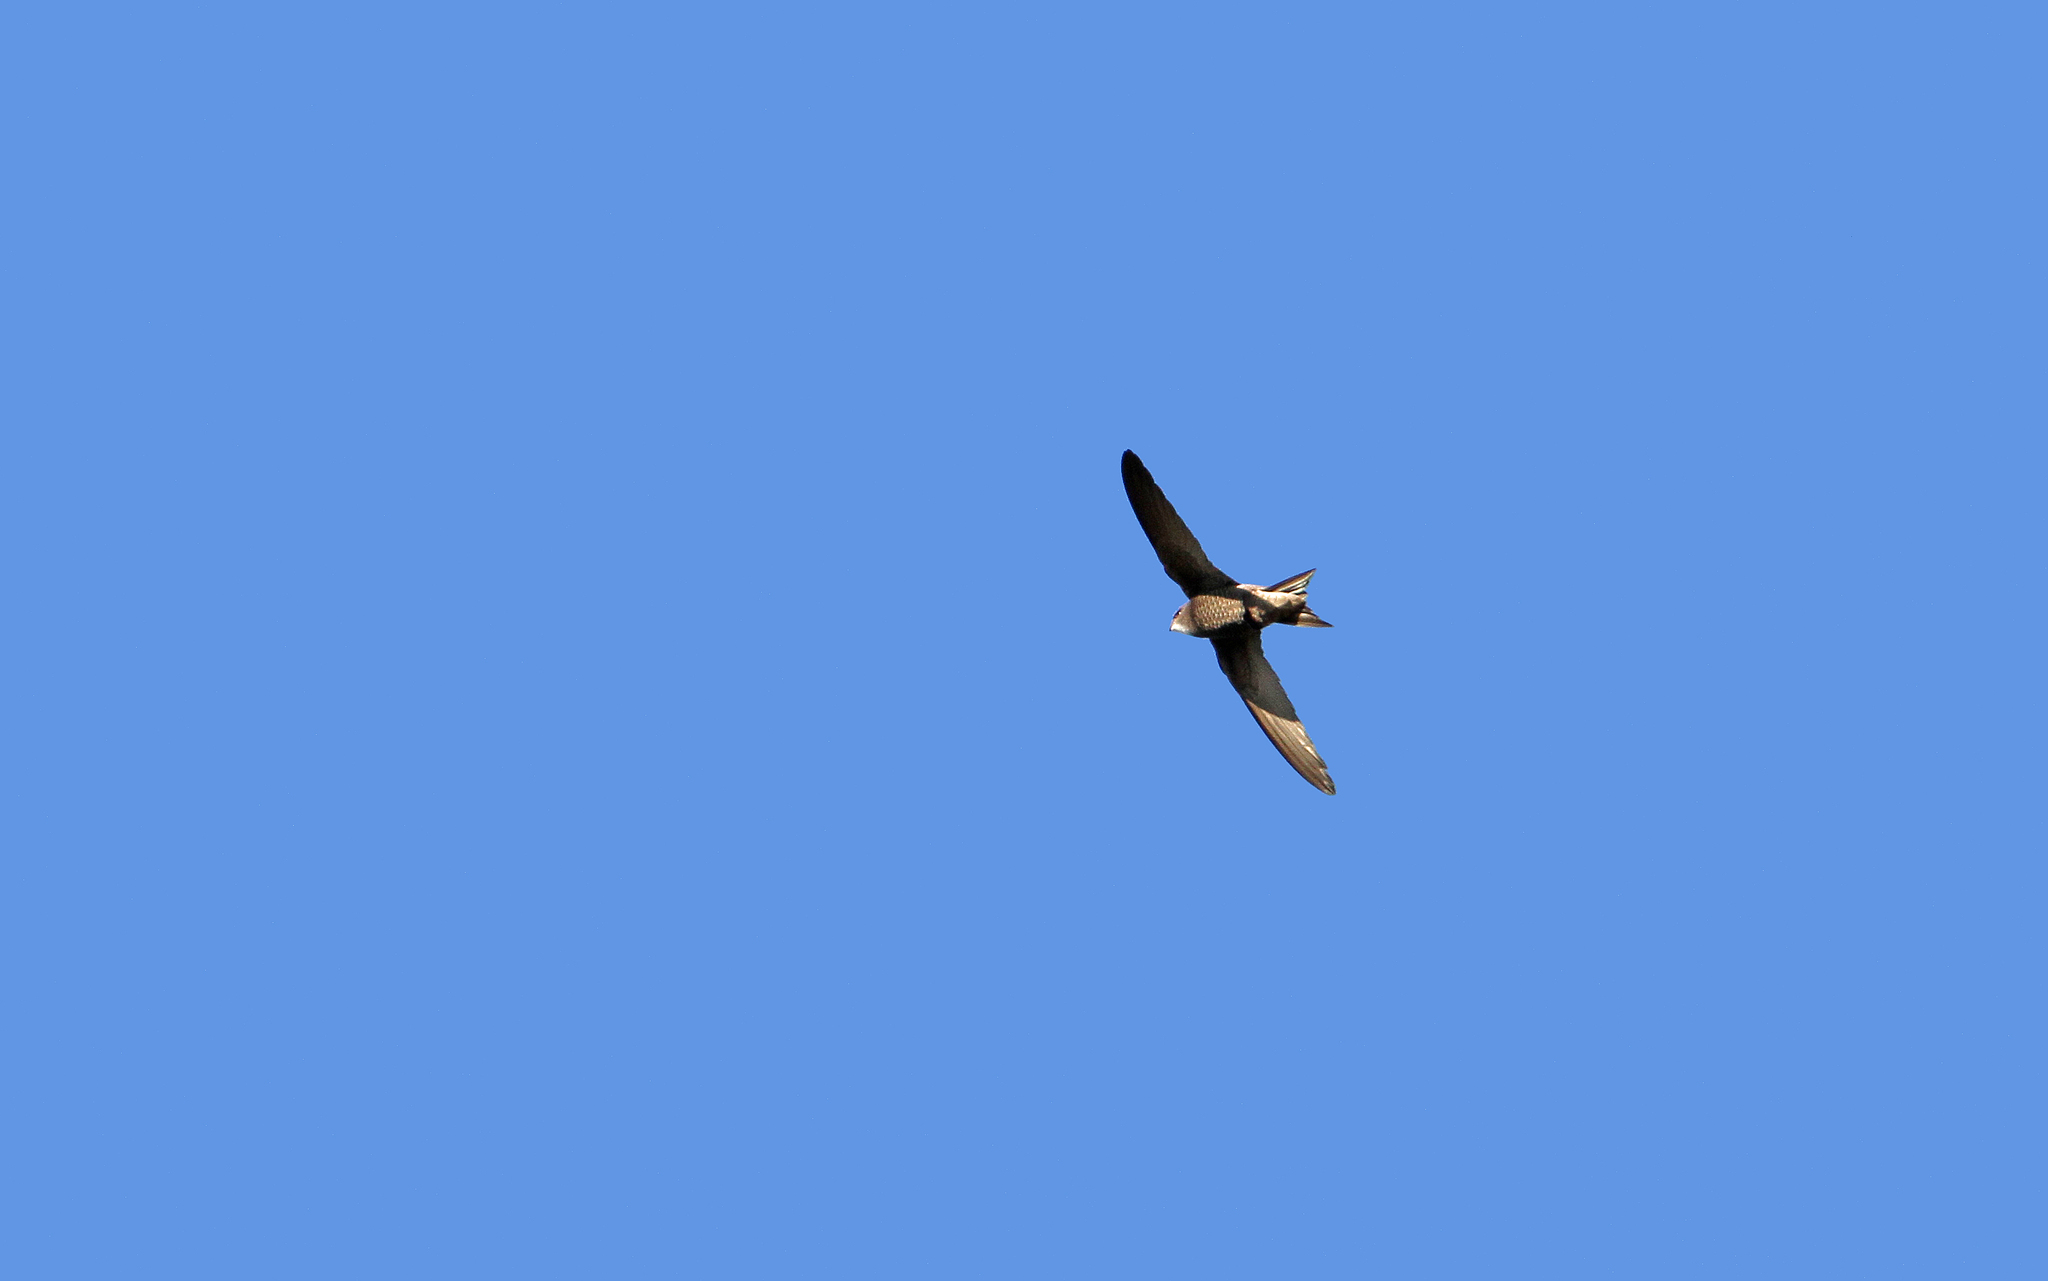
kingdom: Animalia
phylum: Chordata
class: Aves
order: Apodiformes
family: Apodidae
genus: Apus
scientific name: Apus pallidus
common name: Pallid swift
